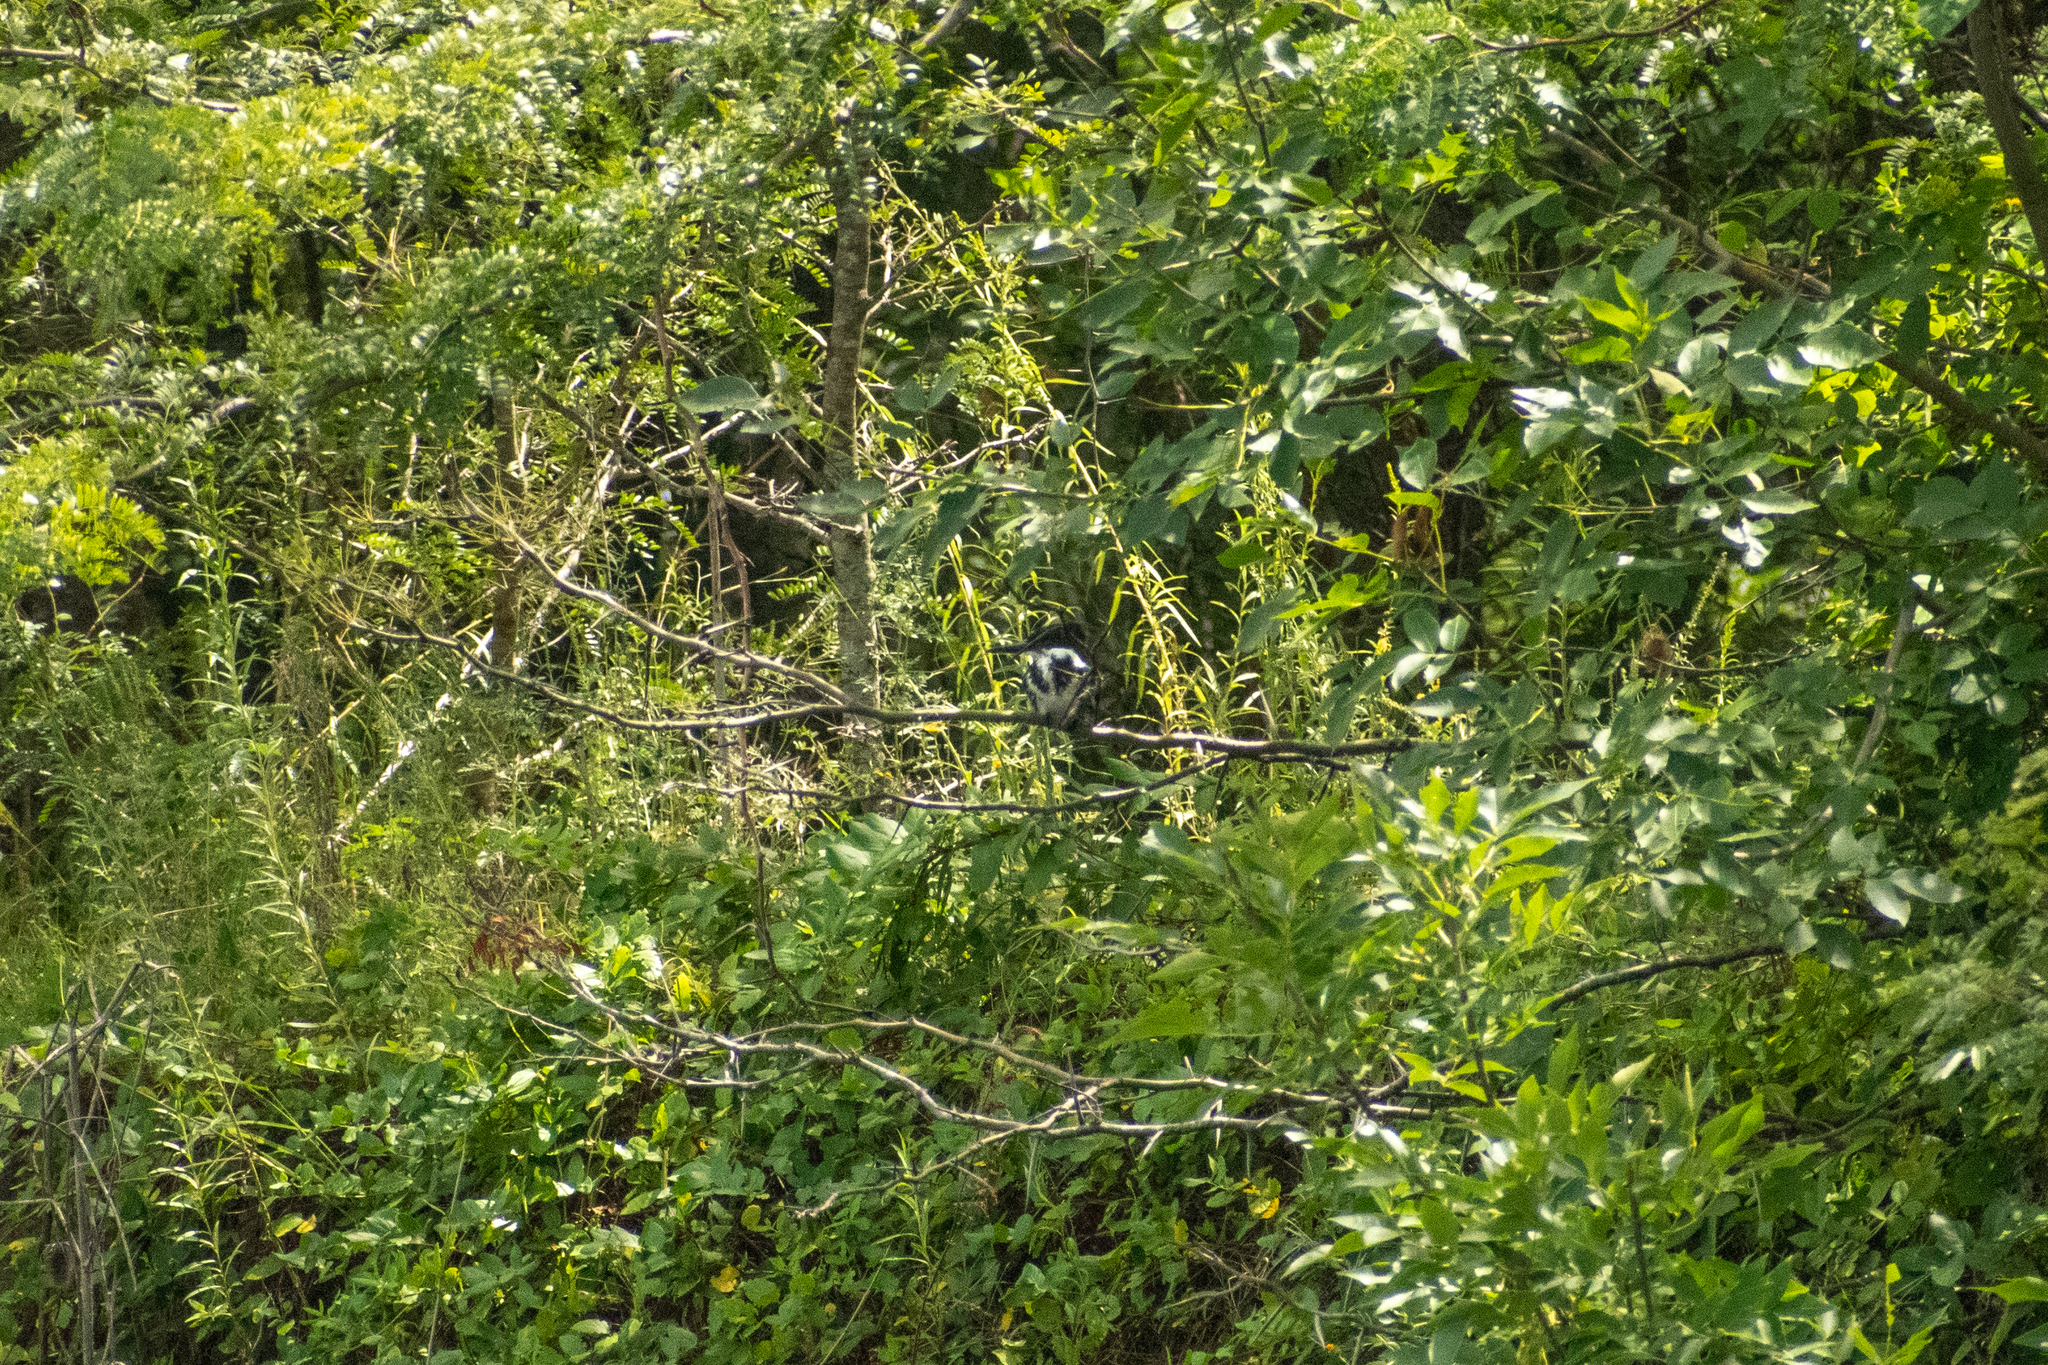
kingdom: Animalia
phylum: Chordata
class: Aves
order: Coraciiformes
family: Alcedinidae
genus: Chloroceryle
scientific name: Chloroceryle amazona
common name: Amazon kingfisher
